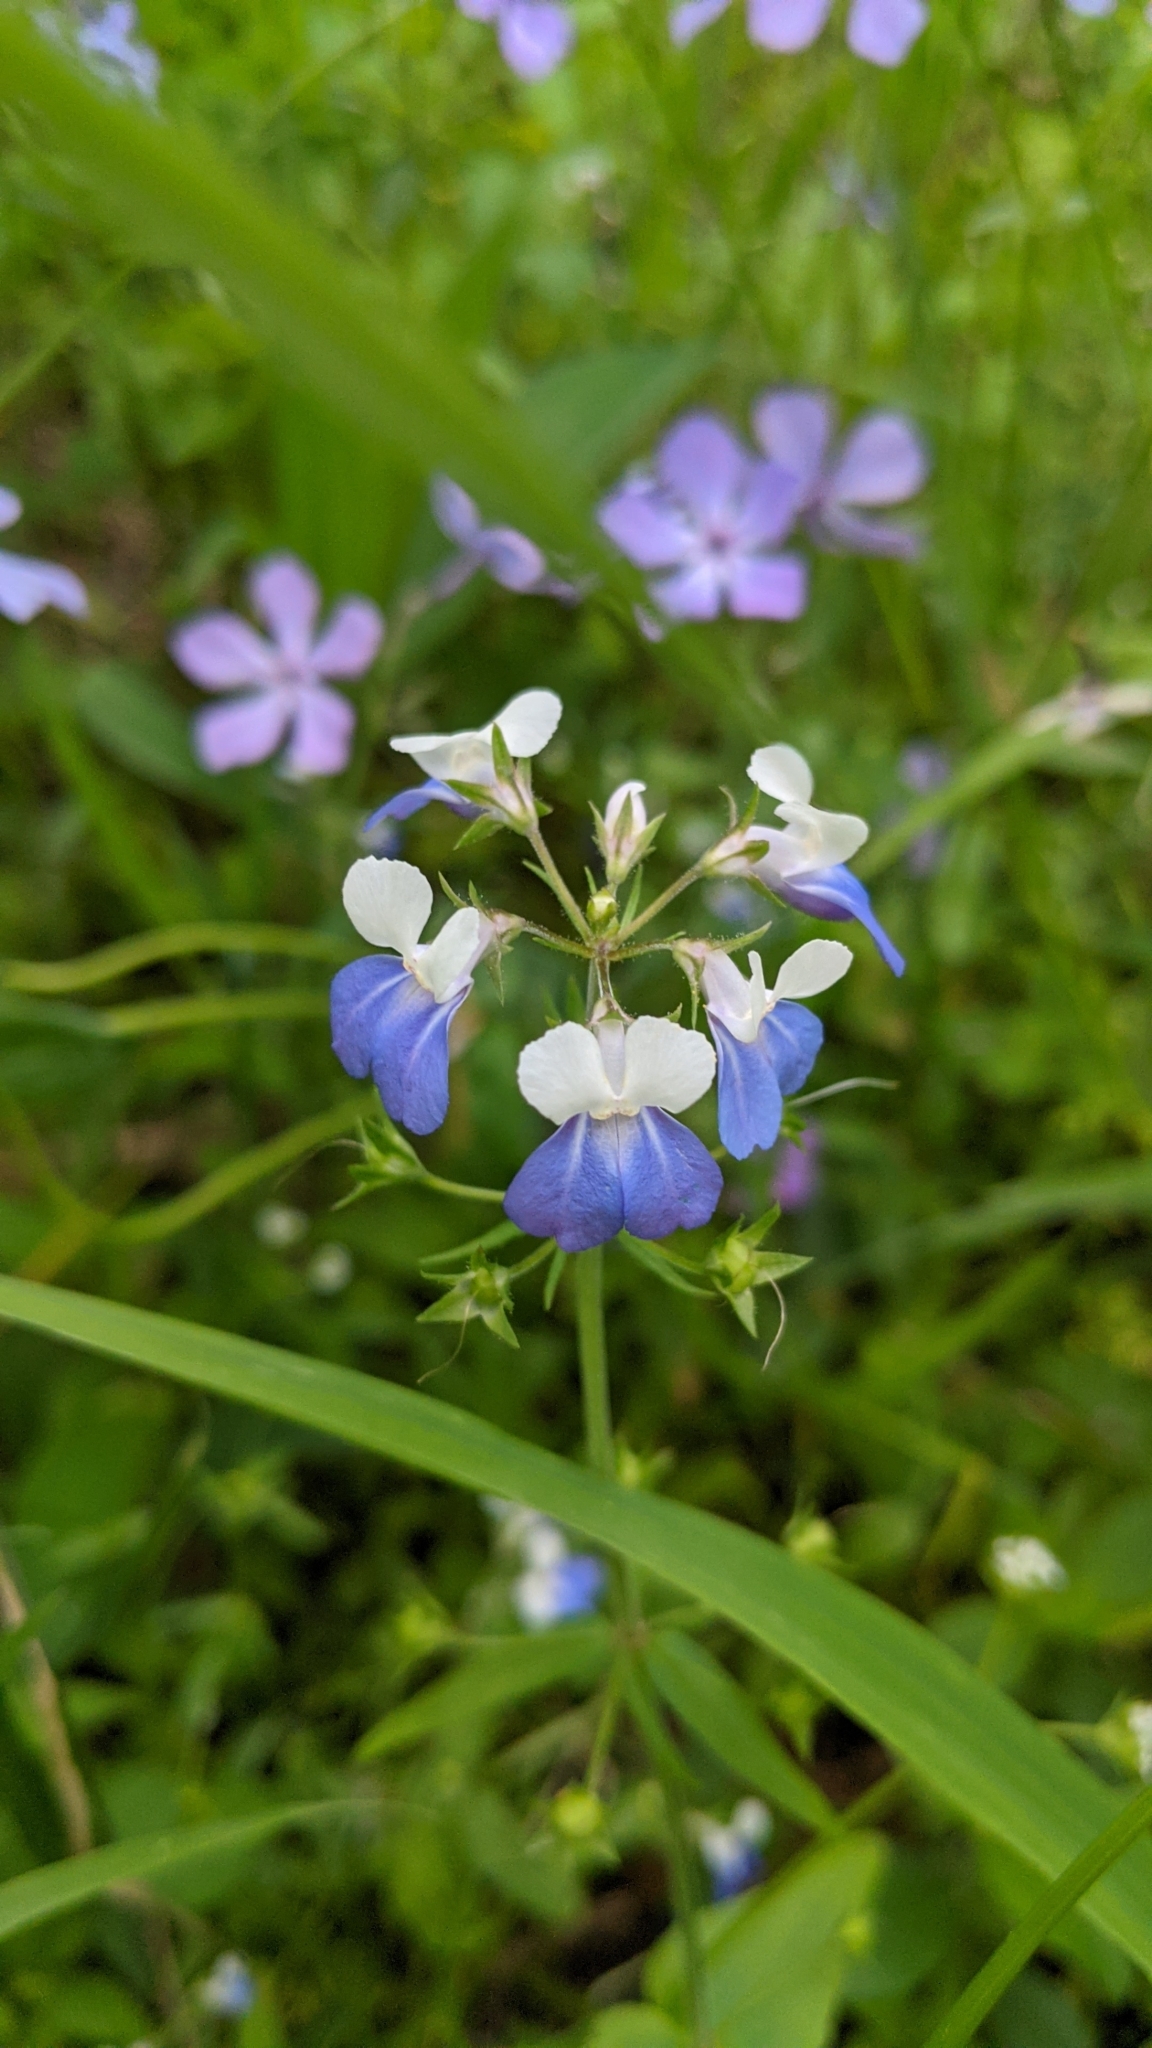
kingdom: Plantae
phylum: Tracheophyta
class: Magnoliopsida
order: Lamiales
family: Plantaginaceae
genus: Collinsia
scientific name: Collinsia verna
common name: Broad-leaved collinsia
